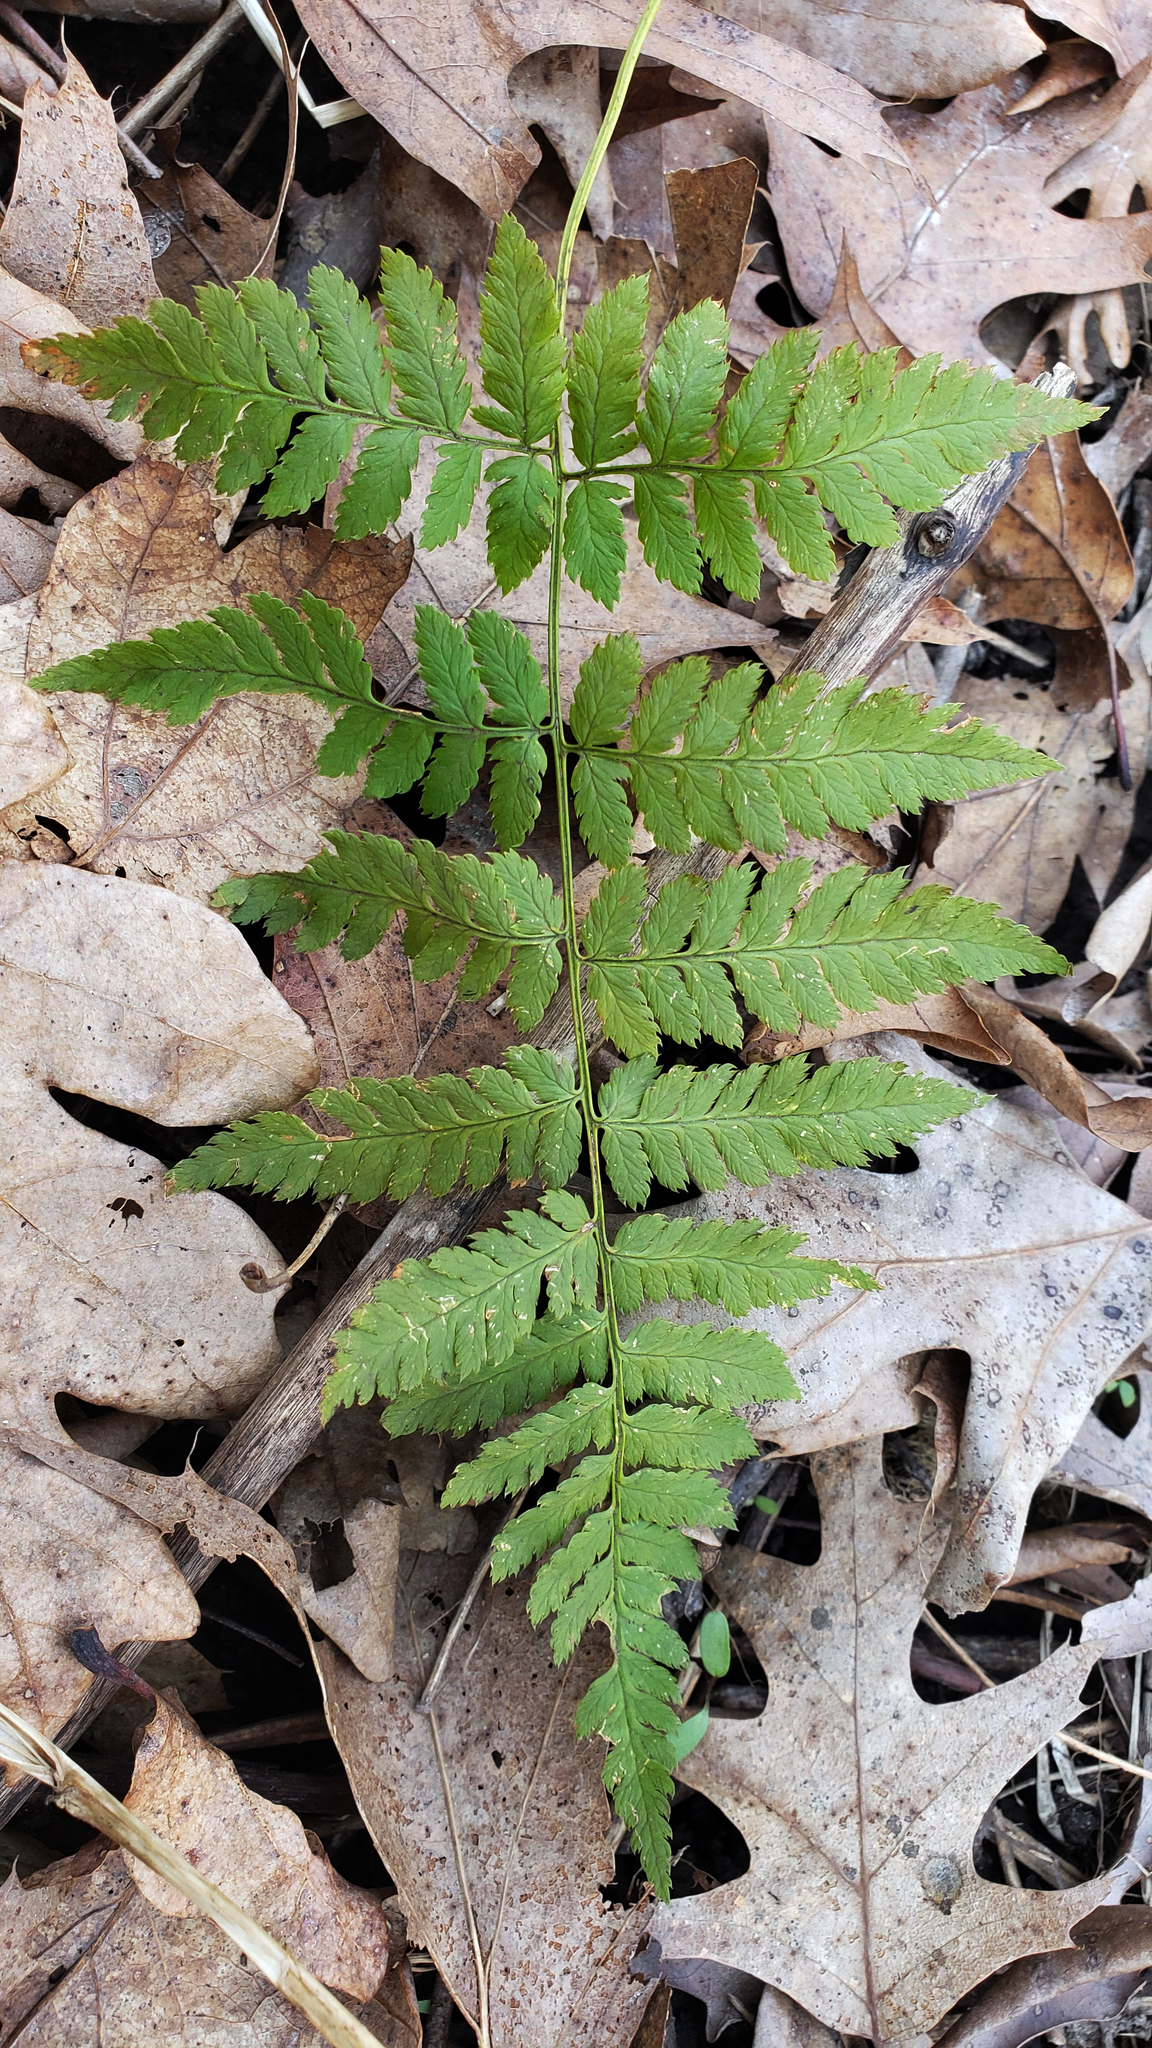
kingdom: Plantae
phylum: Tracheophyta
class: Polypodiopsida
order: Polypodiales
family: Dryopteridaceae
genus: Dryopteris
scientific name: Dryopteris carthusiana
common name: Narrow buckler-fern
